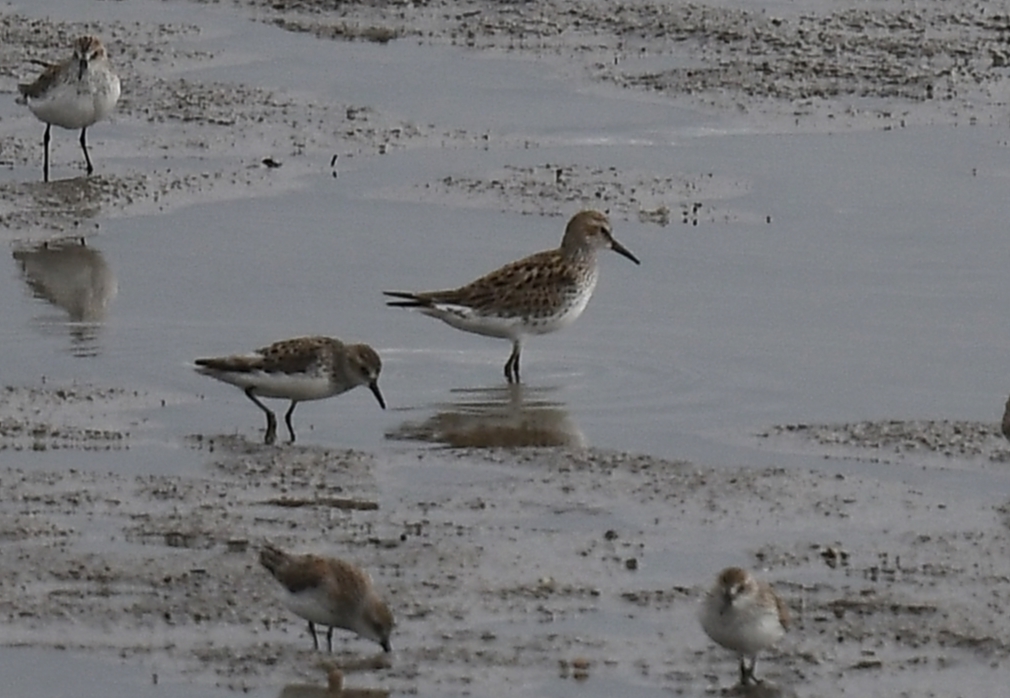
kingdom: Animalia
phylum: Chordata
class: Aves
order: Charadriiformes
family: Scolopacidae
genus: Calidris
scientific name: Calidris fuscicollis
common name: White-rumped sandpiper
